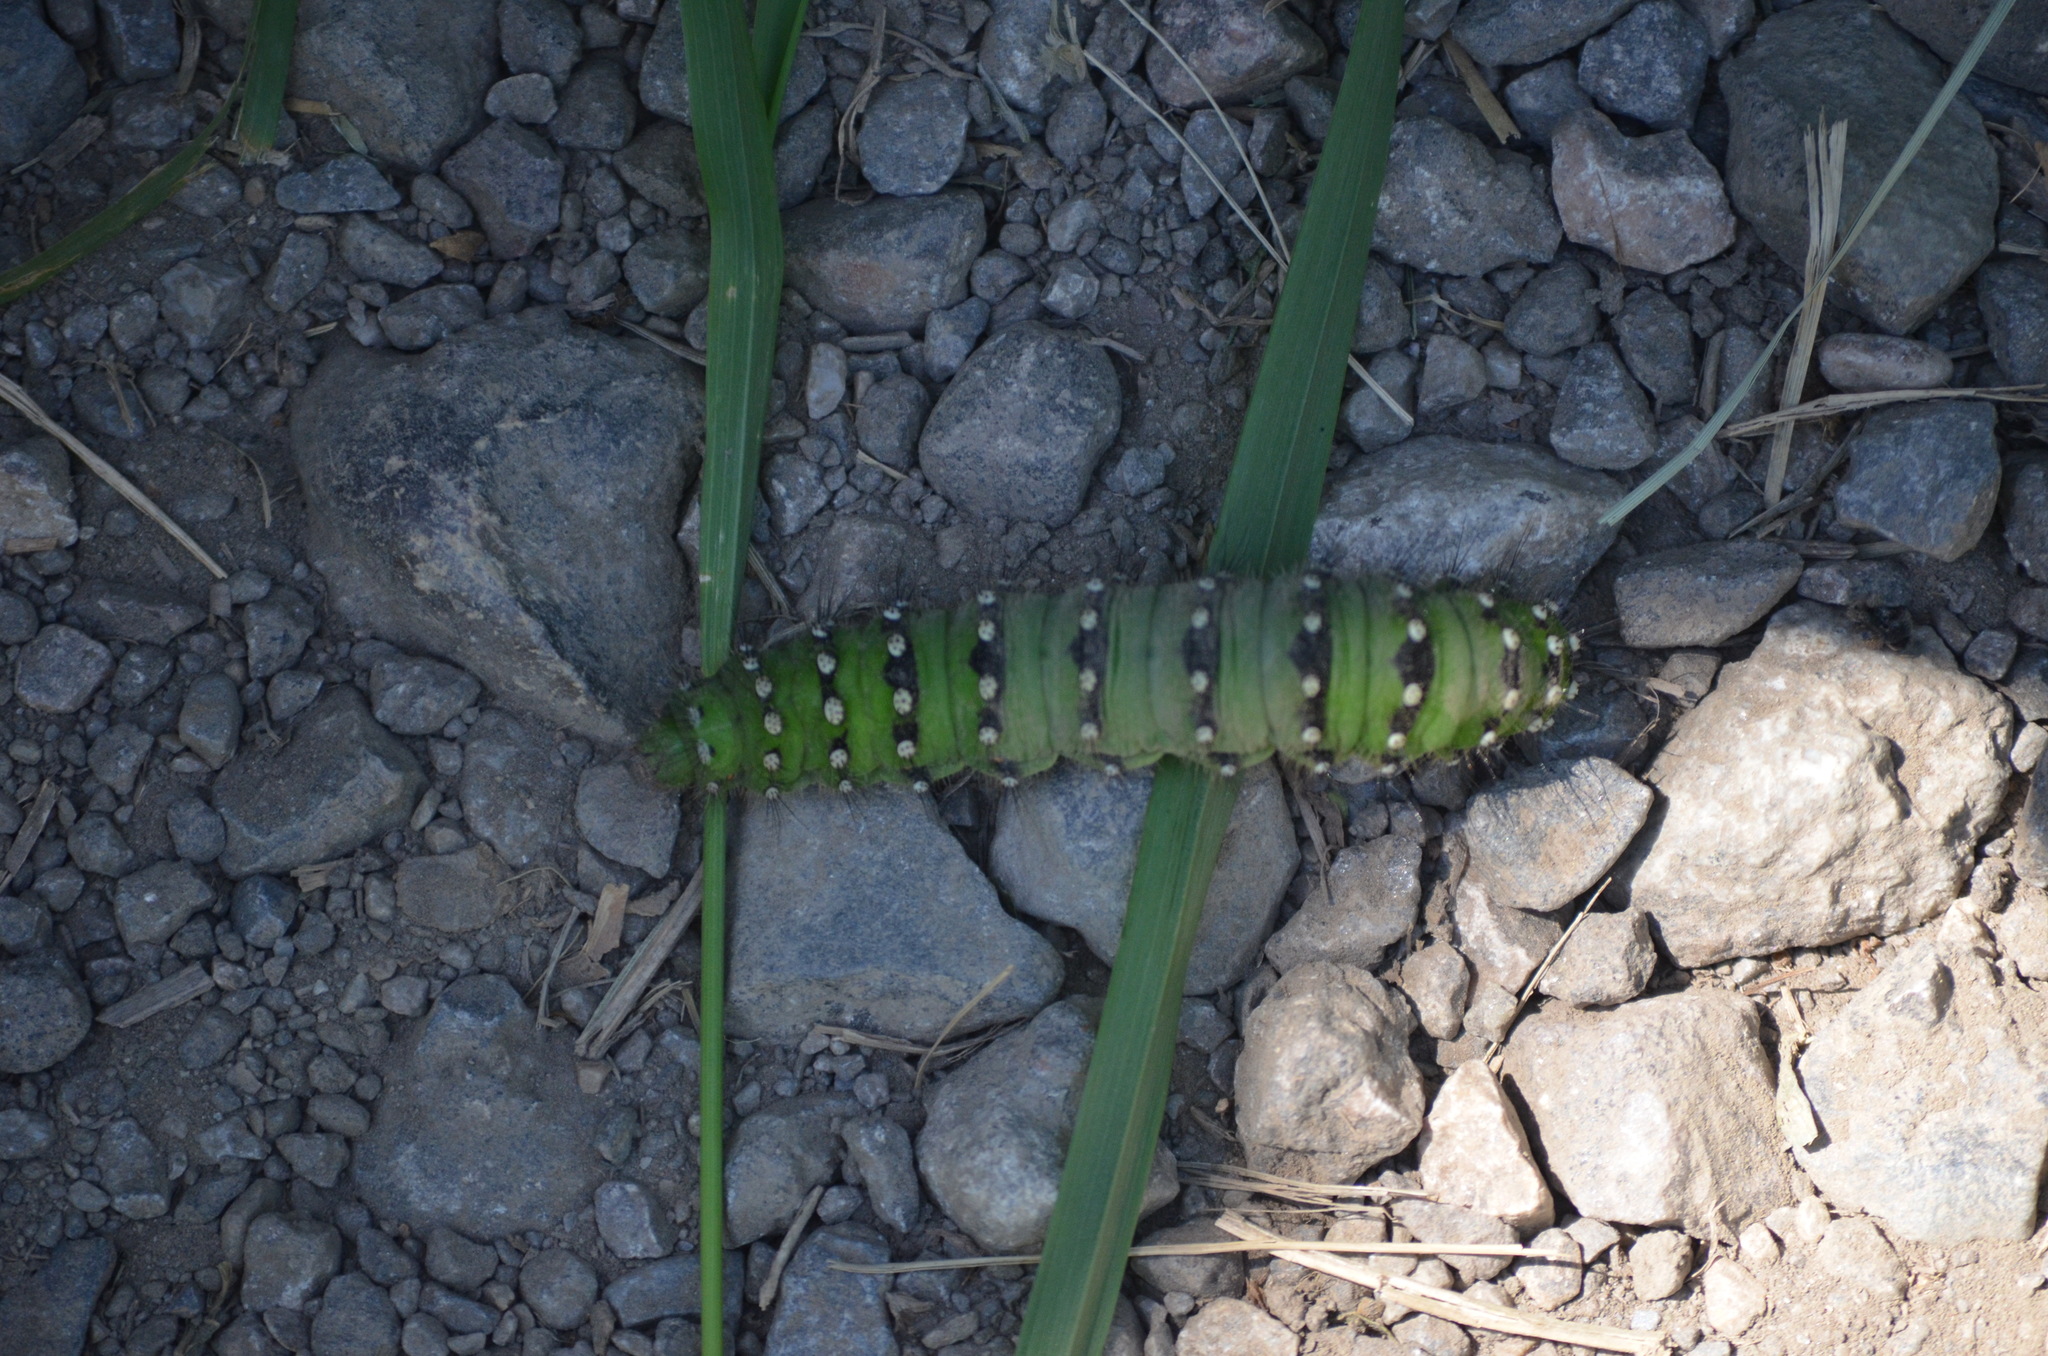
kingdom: Animalia
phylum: Arthropoda
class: Insecta
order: Lepidoptera
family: Saturniidae
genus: Saturnia
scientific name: Saturnia pavonia
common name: Emperor moth
